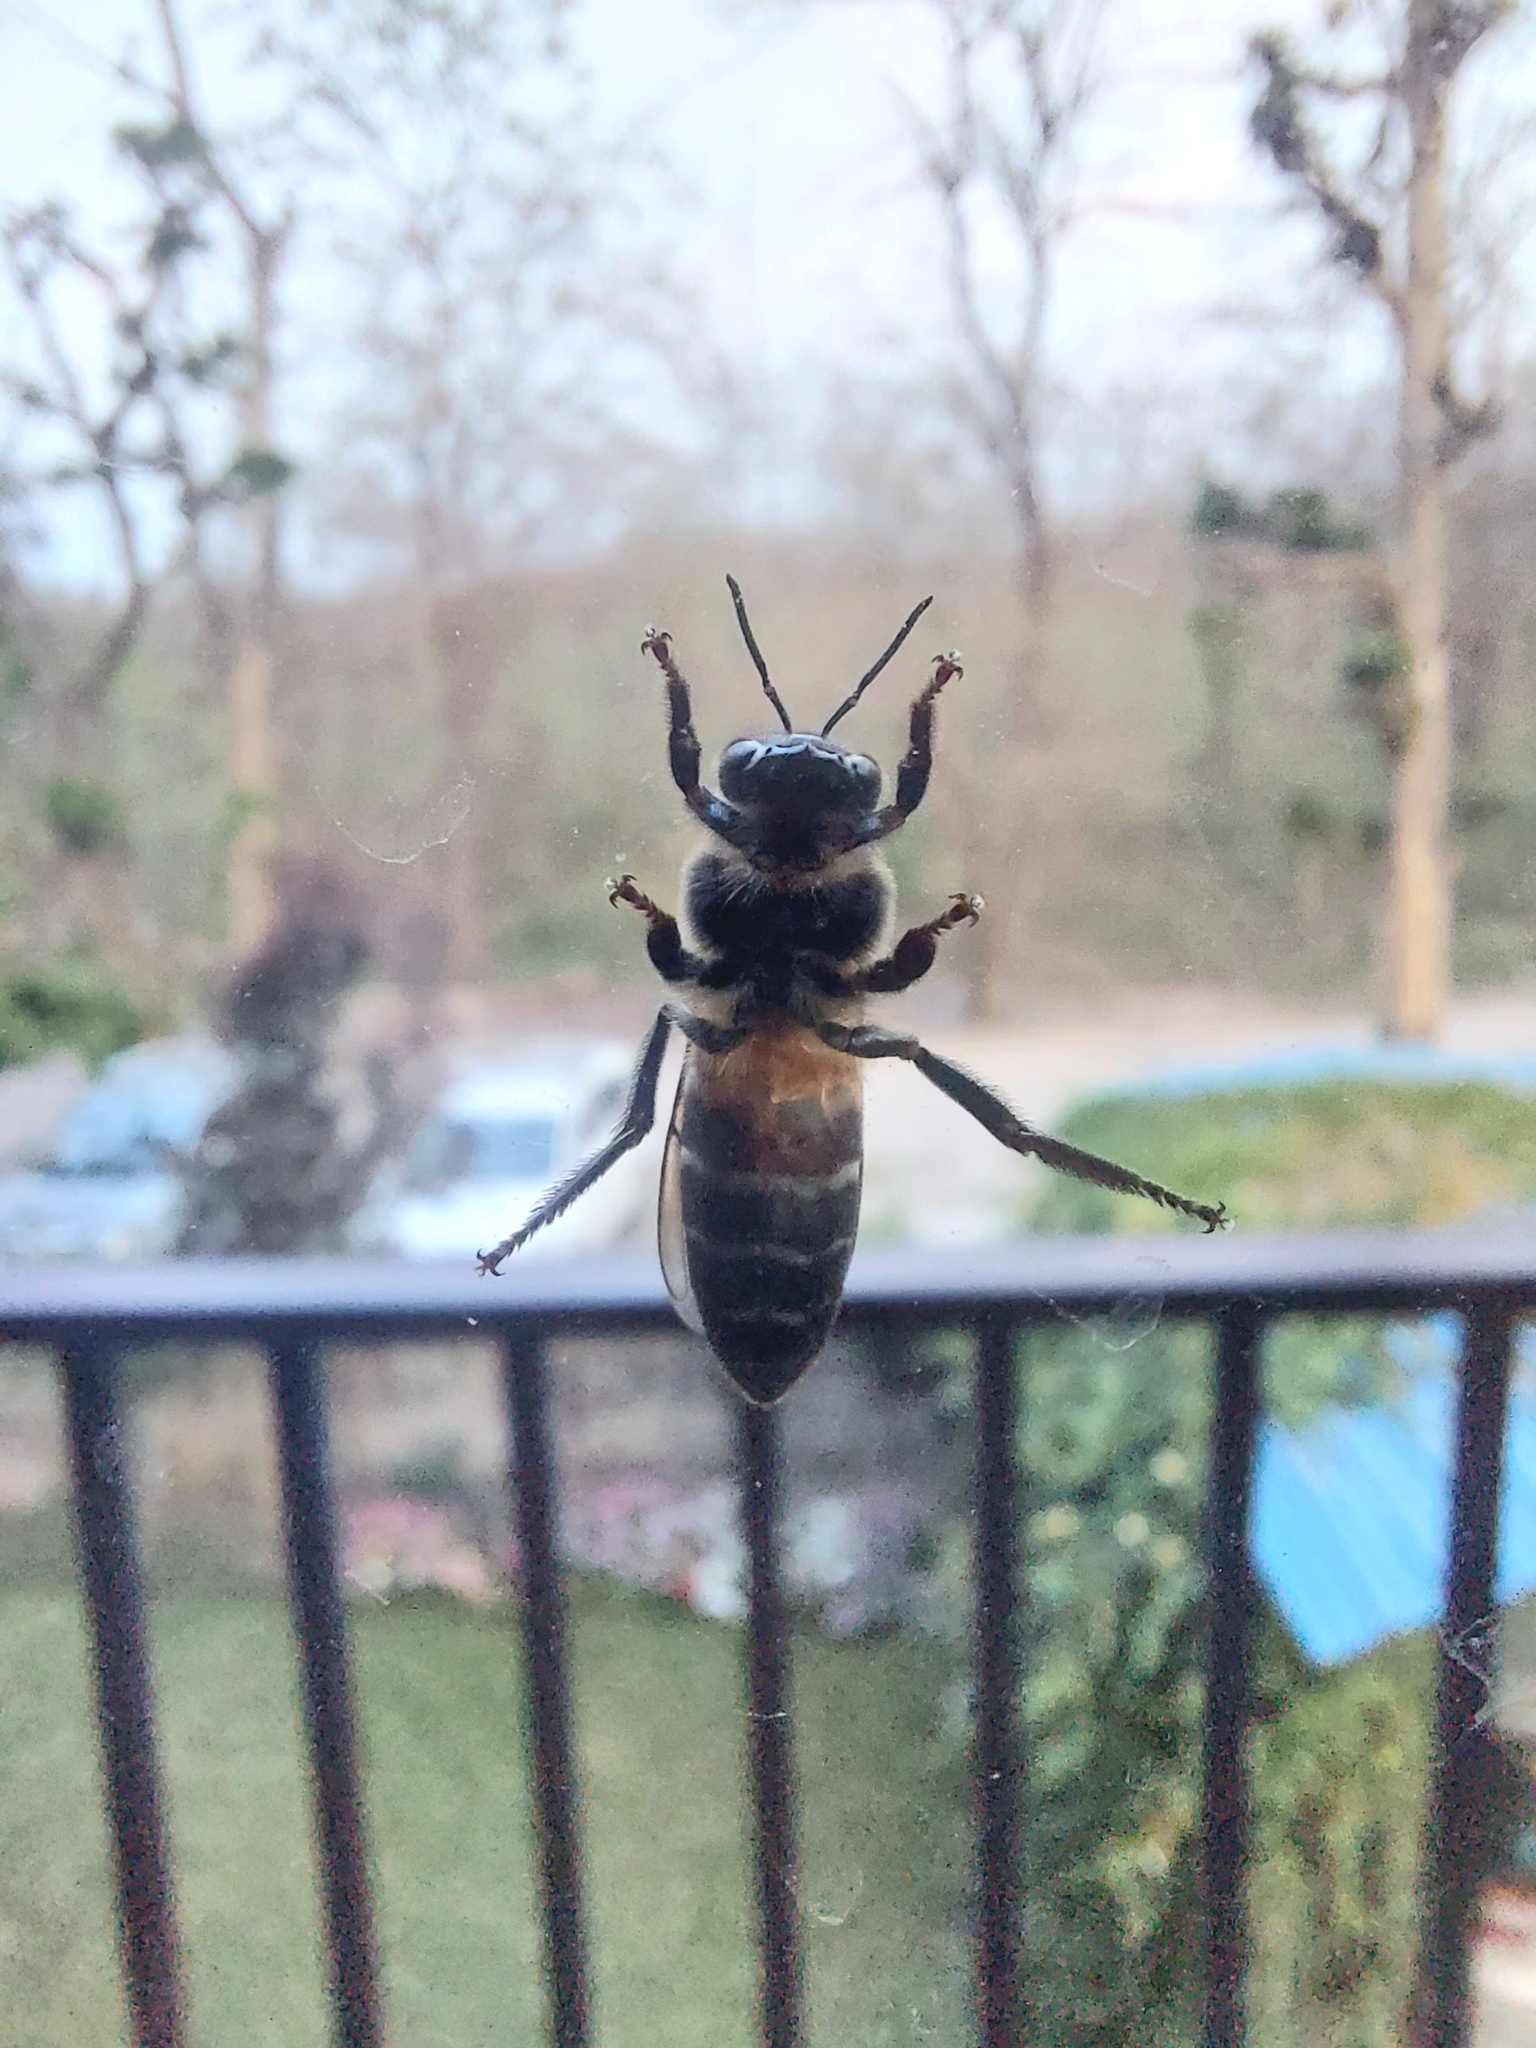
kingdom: Animalia
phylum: Arthropoda
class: Insecta
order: Hymenoptera
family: Apidae
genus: Apis
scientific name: Apis dorsata
